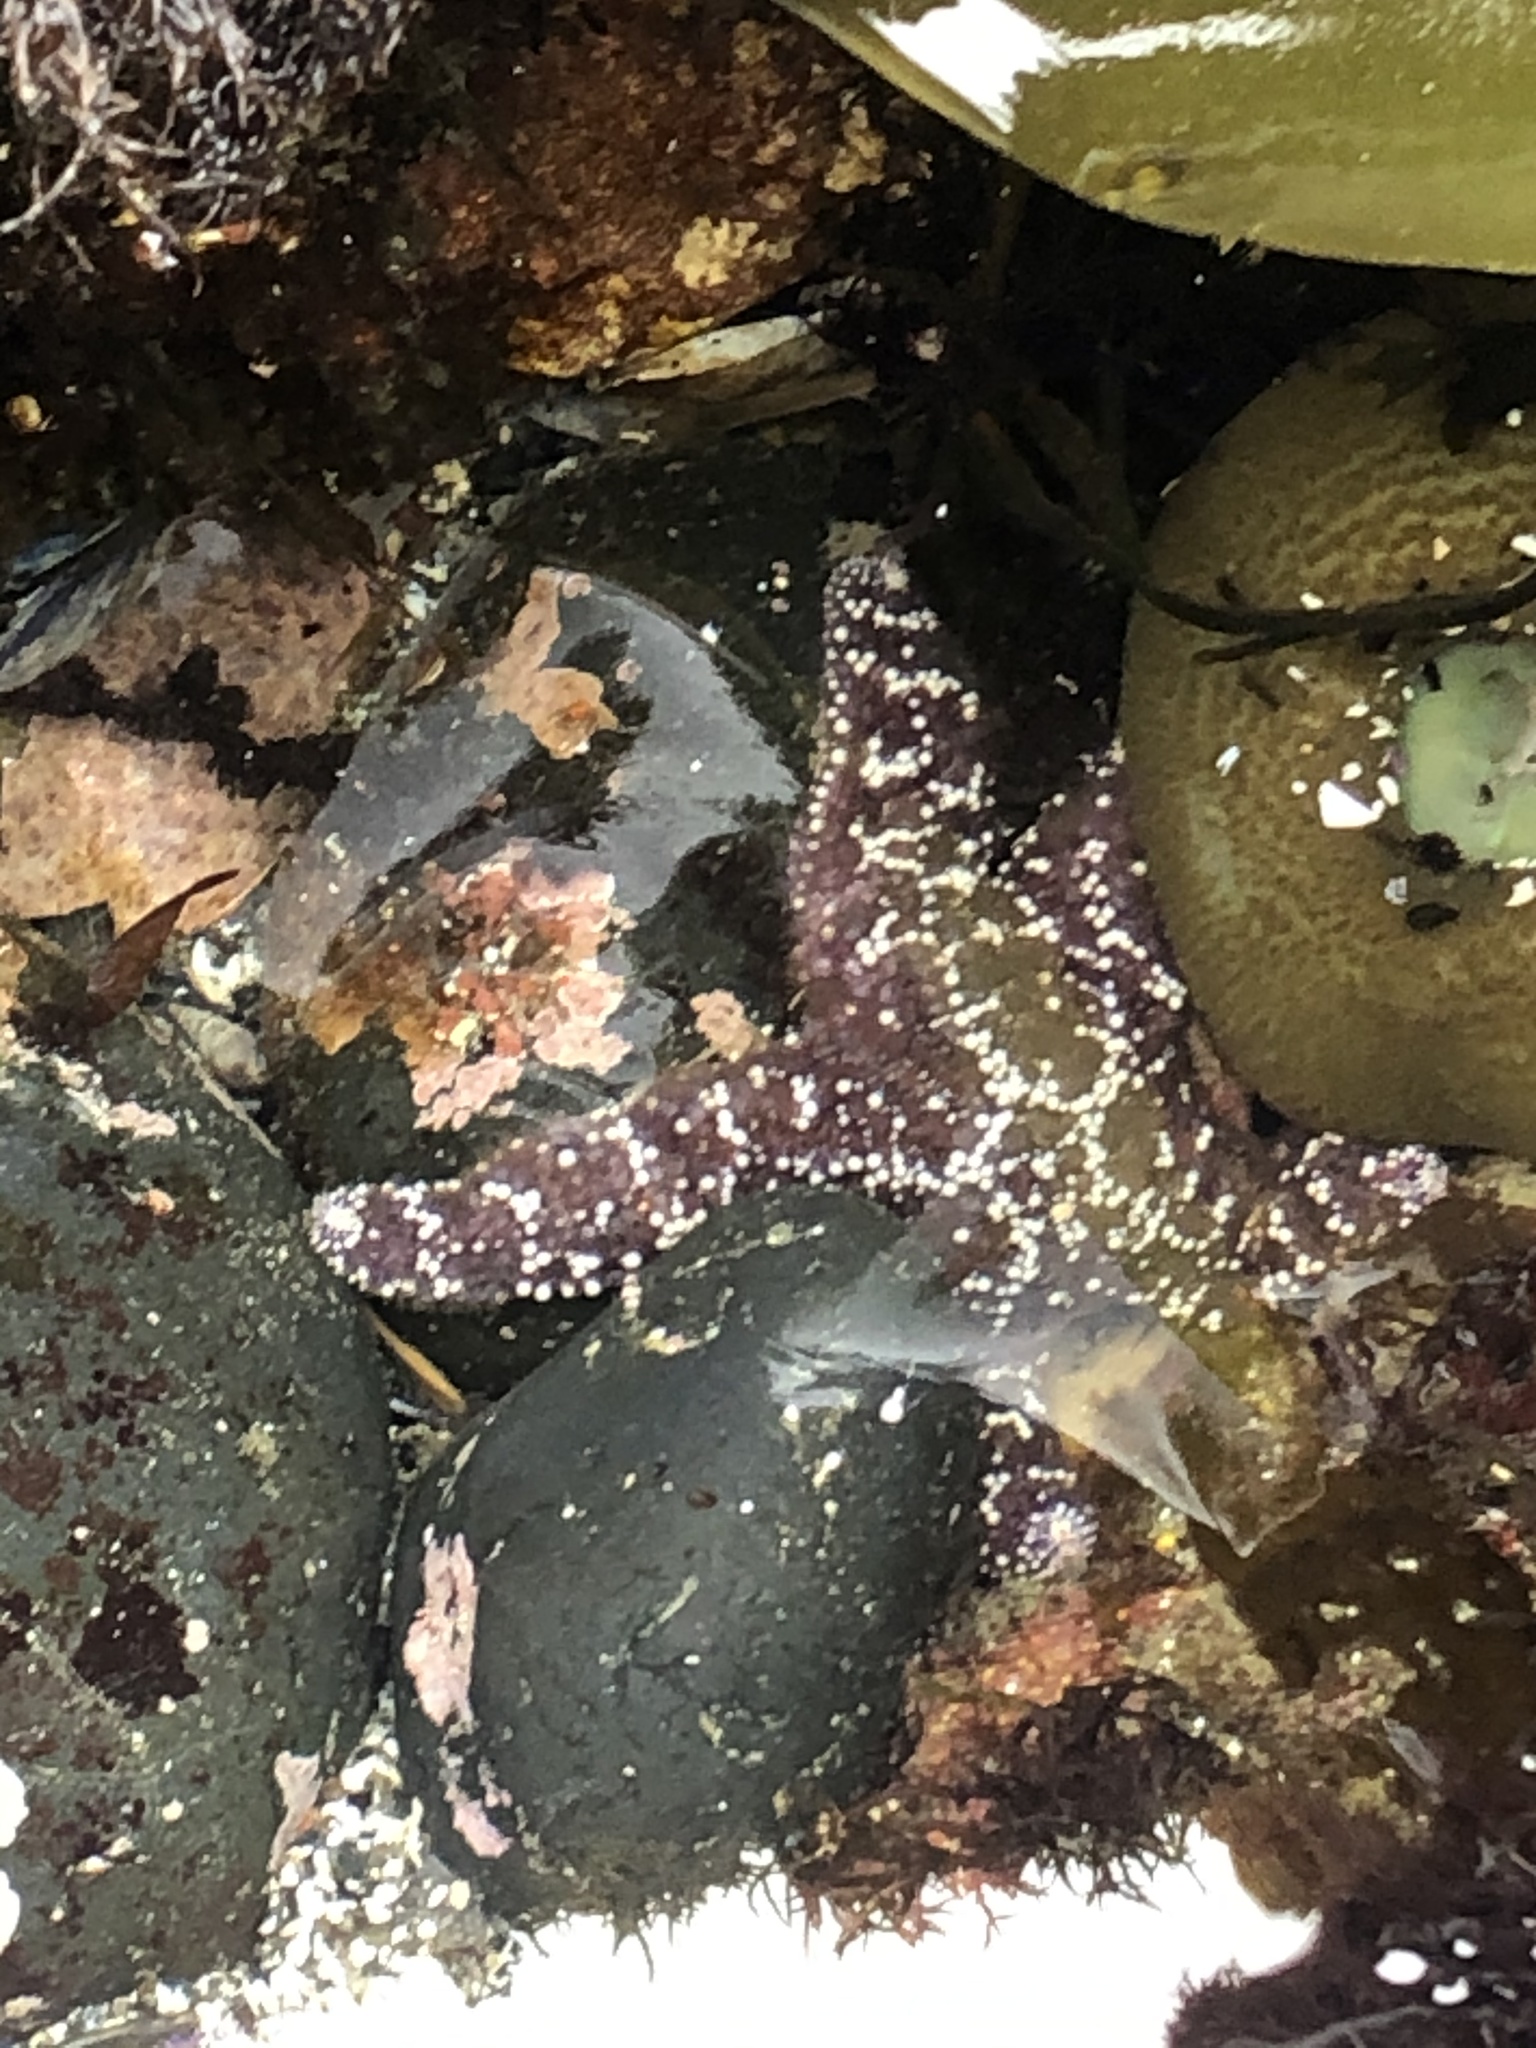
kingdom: Animalia
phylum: Echinodermata
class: Asteroidea
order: Forcipulatida
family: Asteriidae
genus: Pisaster
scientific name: Pisaster ochraceus
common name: Ochre stars
